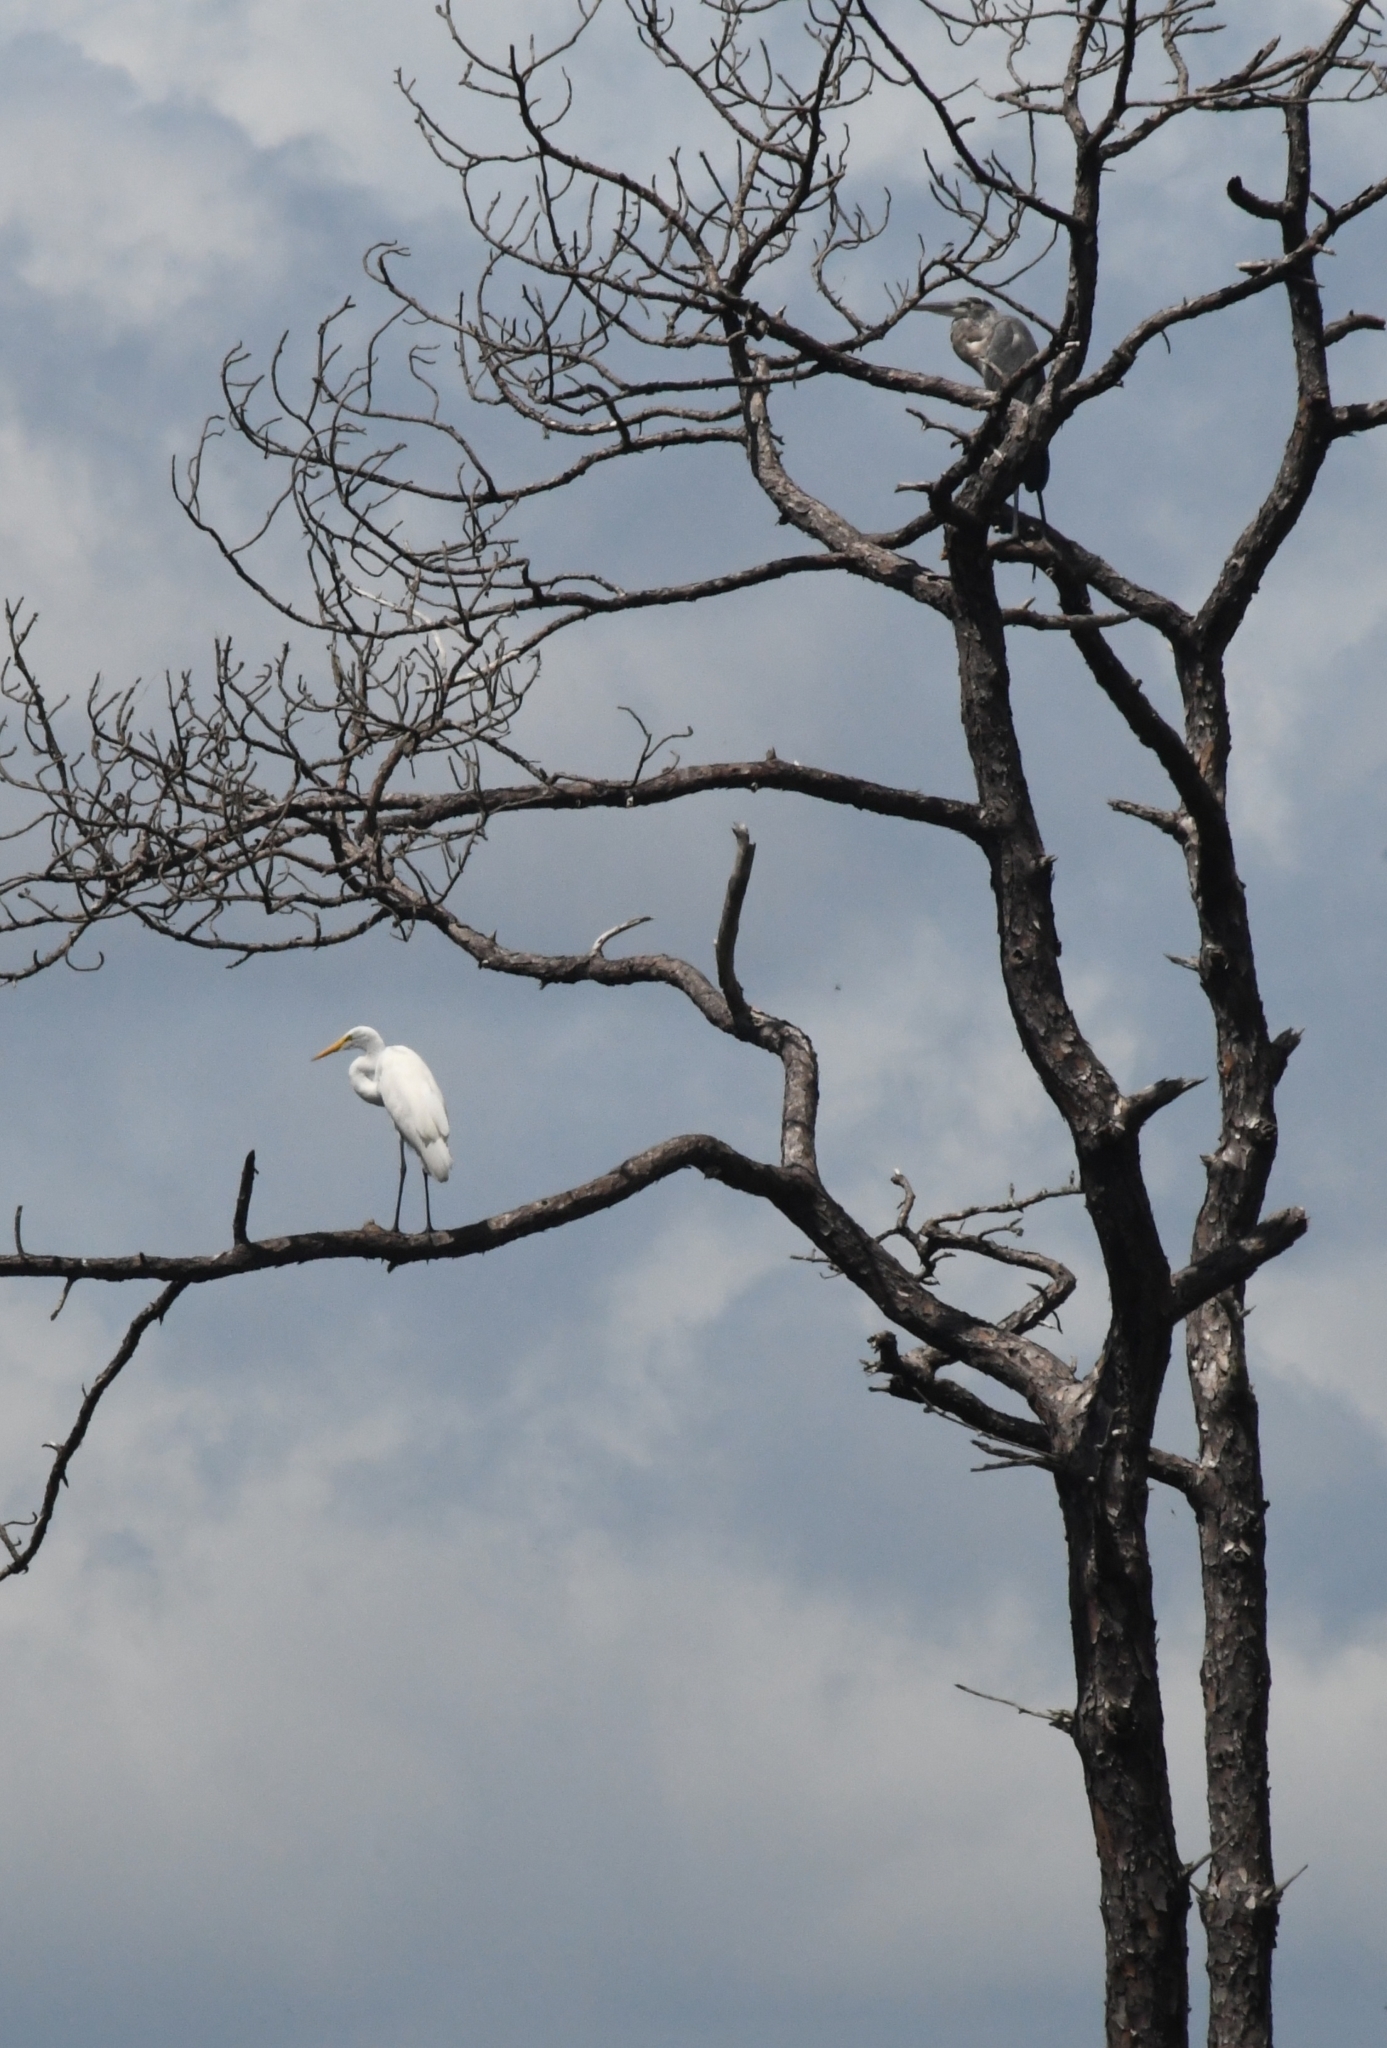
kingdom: Animalia
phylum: Chordata
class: Aves
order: Pelecaniformes
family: Ardeidae
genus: Ardea
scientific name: Ardea alba
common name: Great egret
